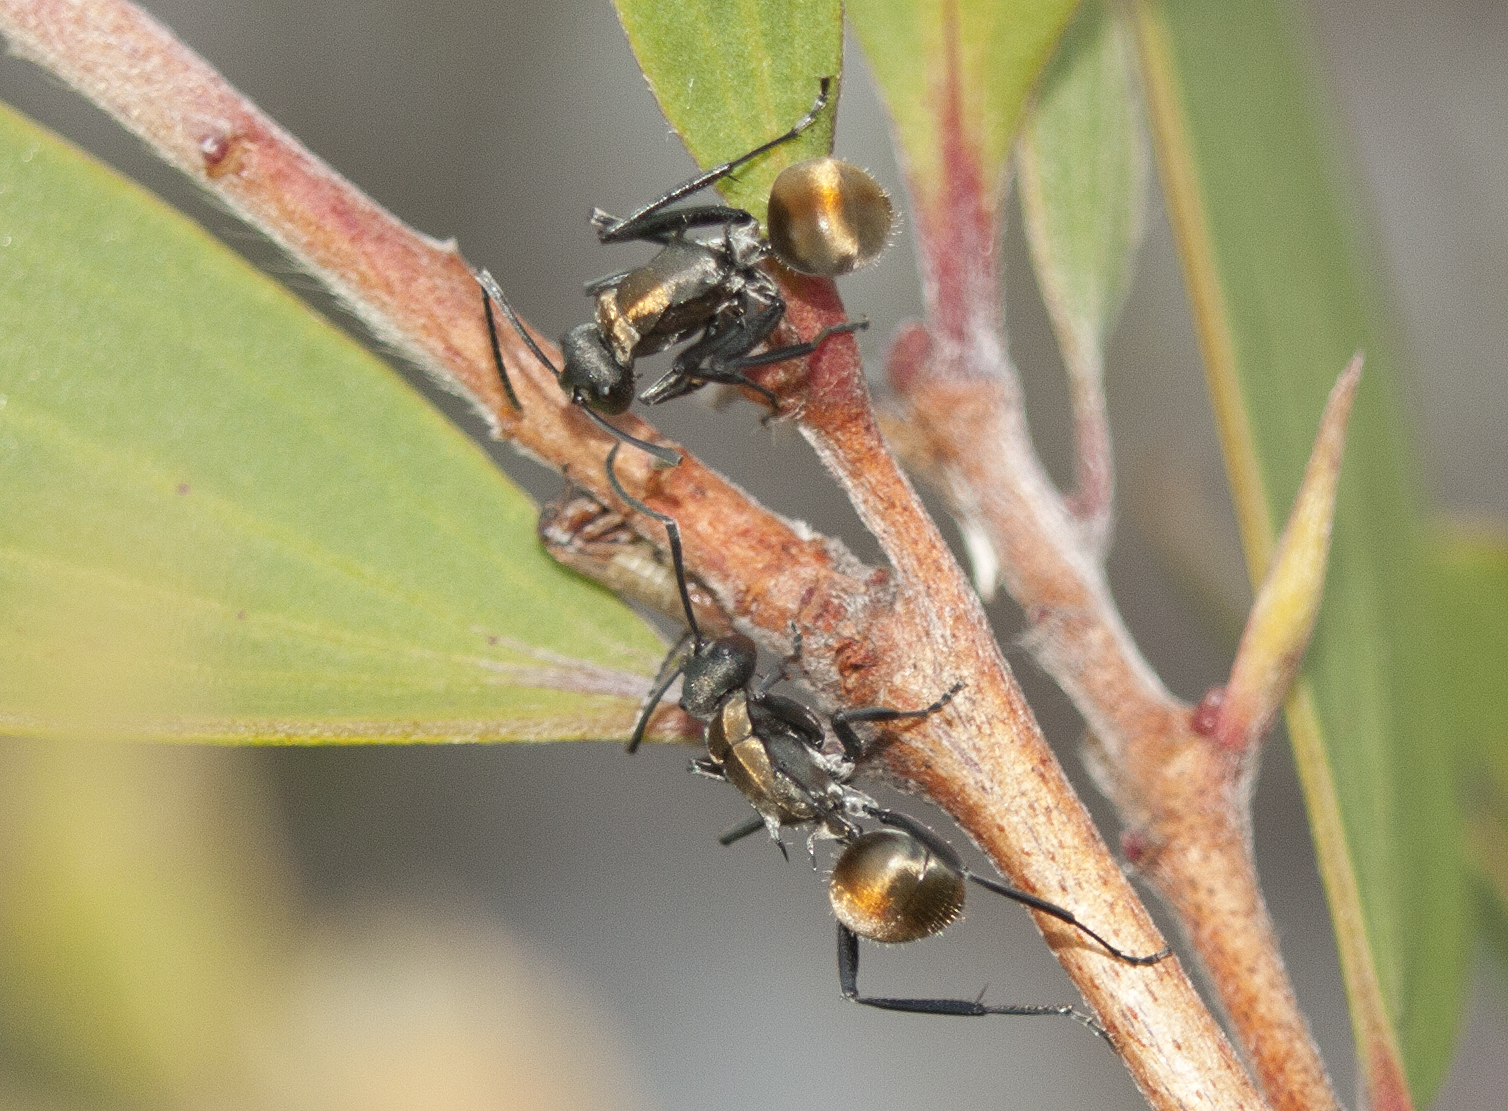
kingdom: Animalia
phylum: Arthropoda
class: Insecta
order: Hymenoptera
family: Formicidae
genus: Polyrhachis
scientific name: Polyrhachis ammon
